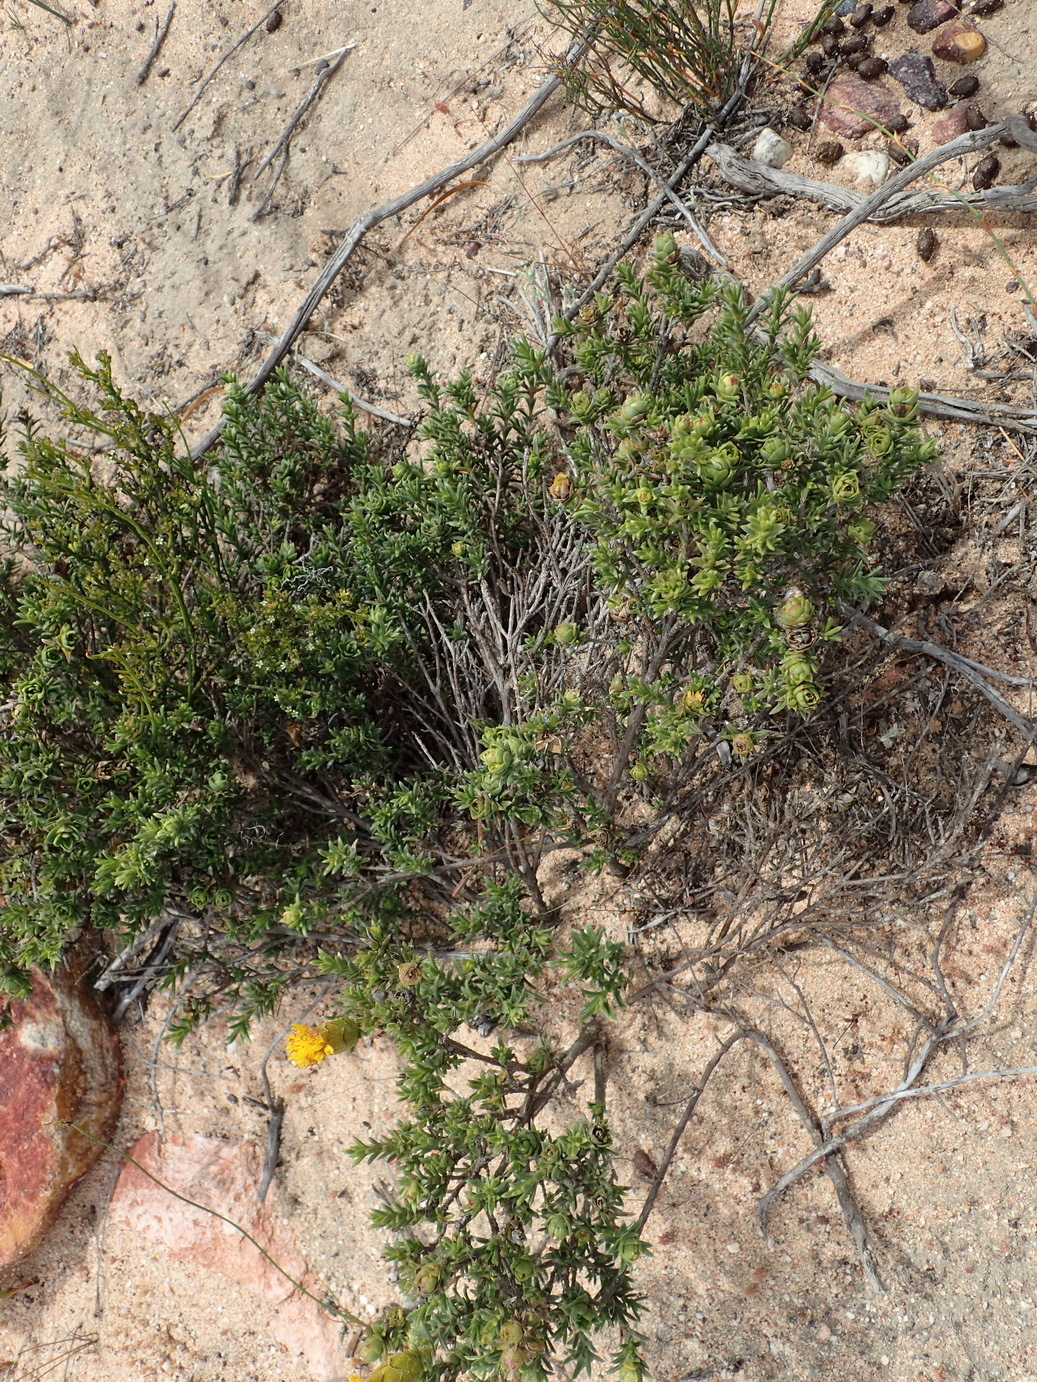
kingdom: Plantae
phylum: Tracheophyta
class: Magnoliopsida
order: Asterales
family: Asteraceae
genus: Pteronia
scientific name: Pteronia elongata
